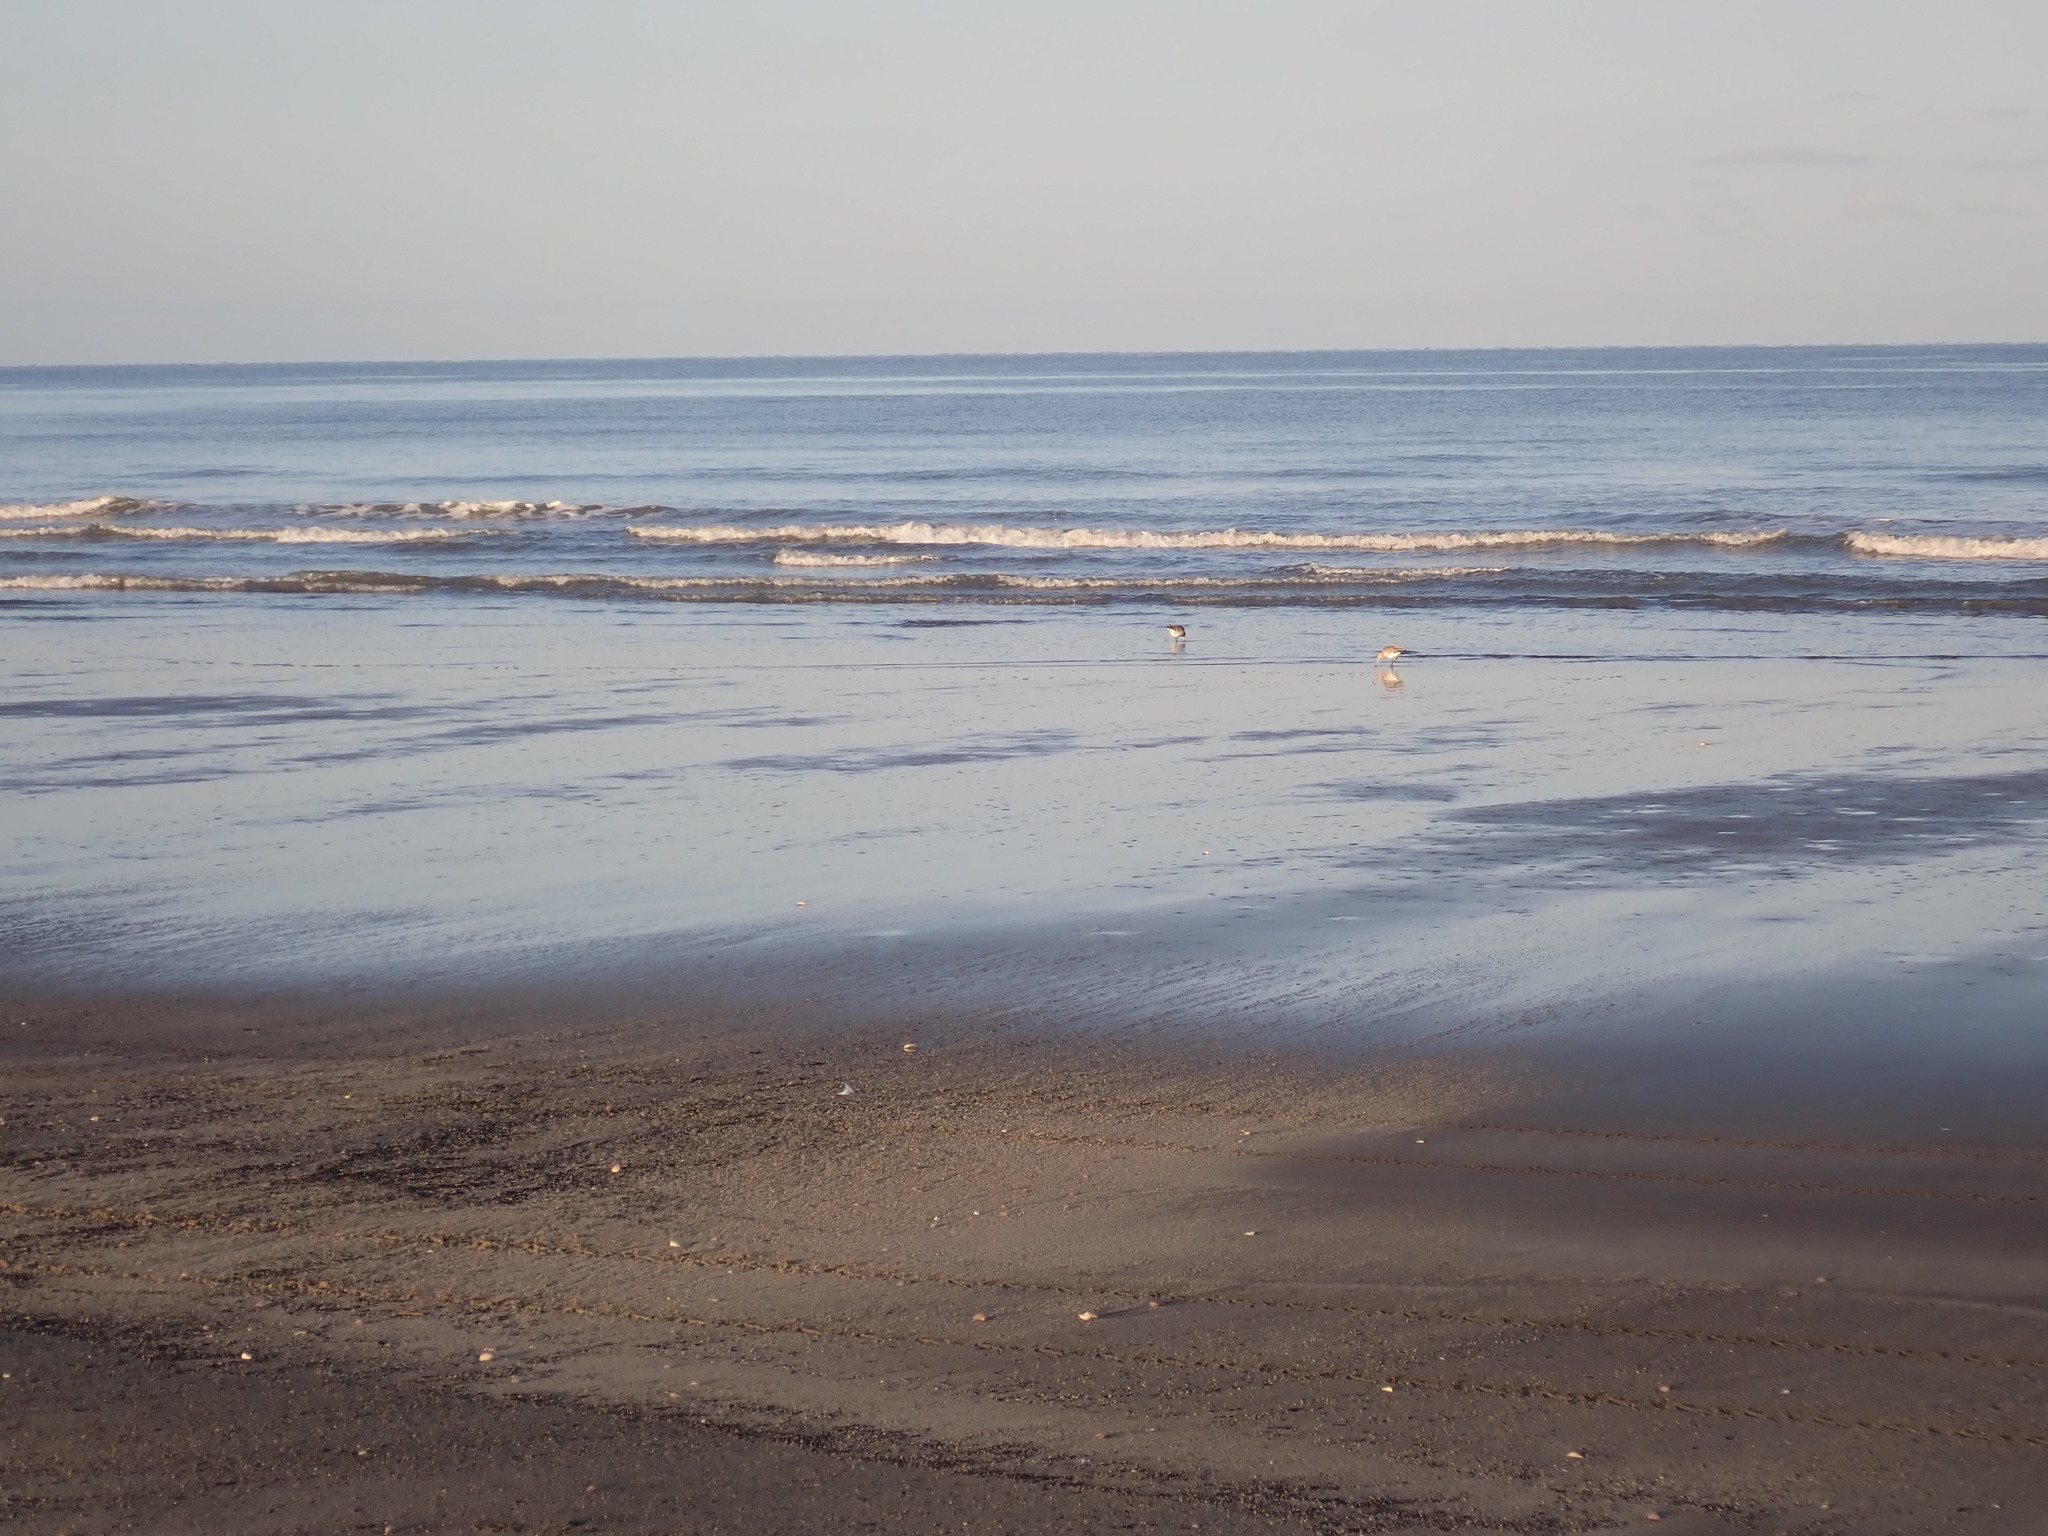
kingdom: Animalia
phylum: Chordata
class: Aves
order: Charadriiformes
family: Scolopacidae
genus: Limosa
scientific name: Limosa lapponica
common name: Bar-tailed godwit
